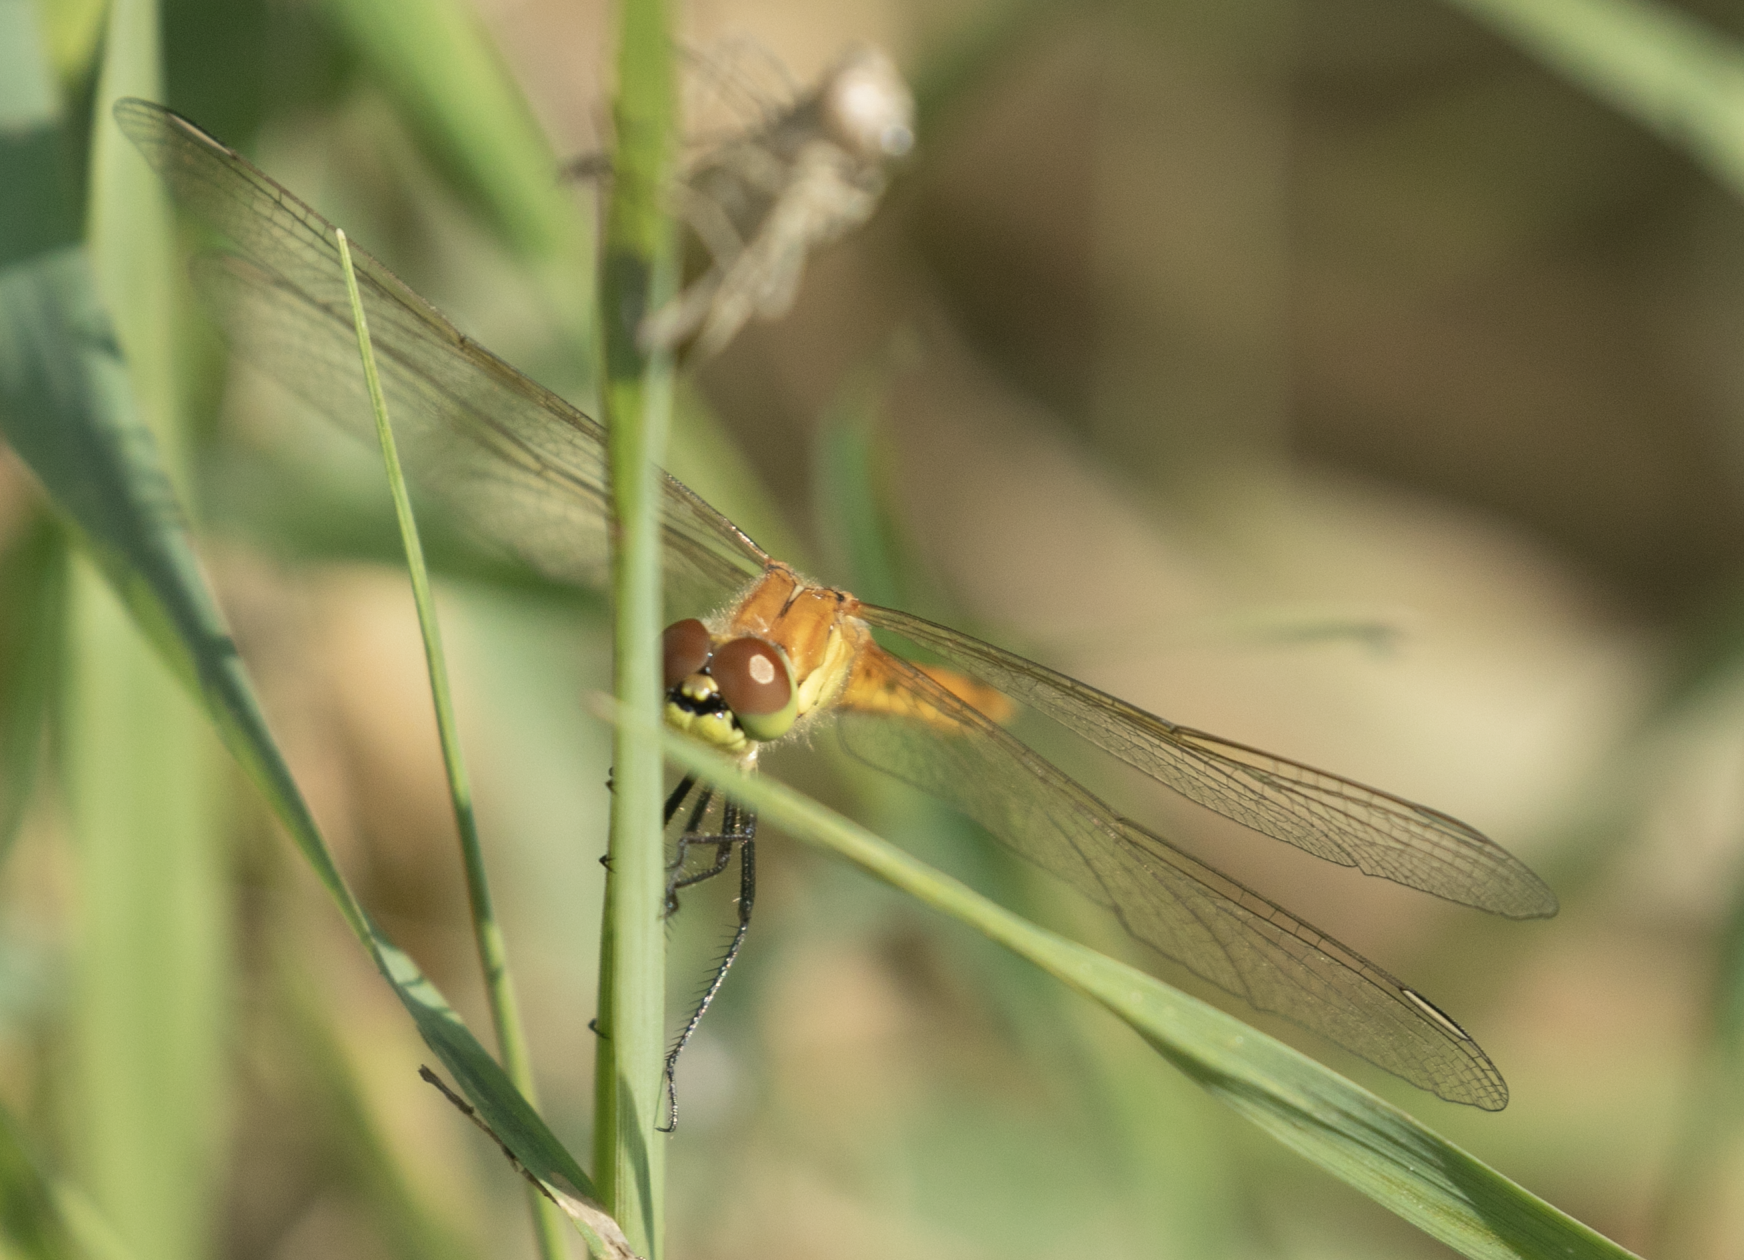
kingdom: Animalia
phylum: Arthropoda
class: Insecta
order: Odonata
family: Libellulidae
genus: Sympetrum
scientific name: Sympetrum depressiusculum
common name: Spotted darter
